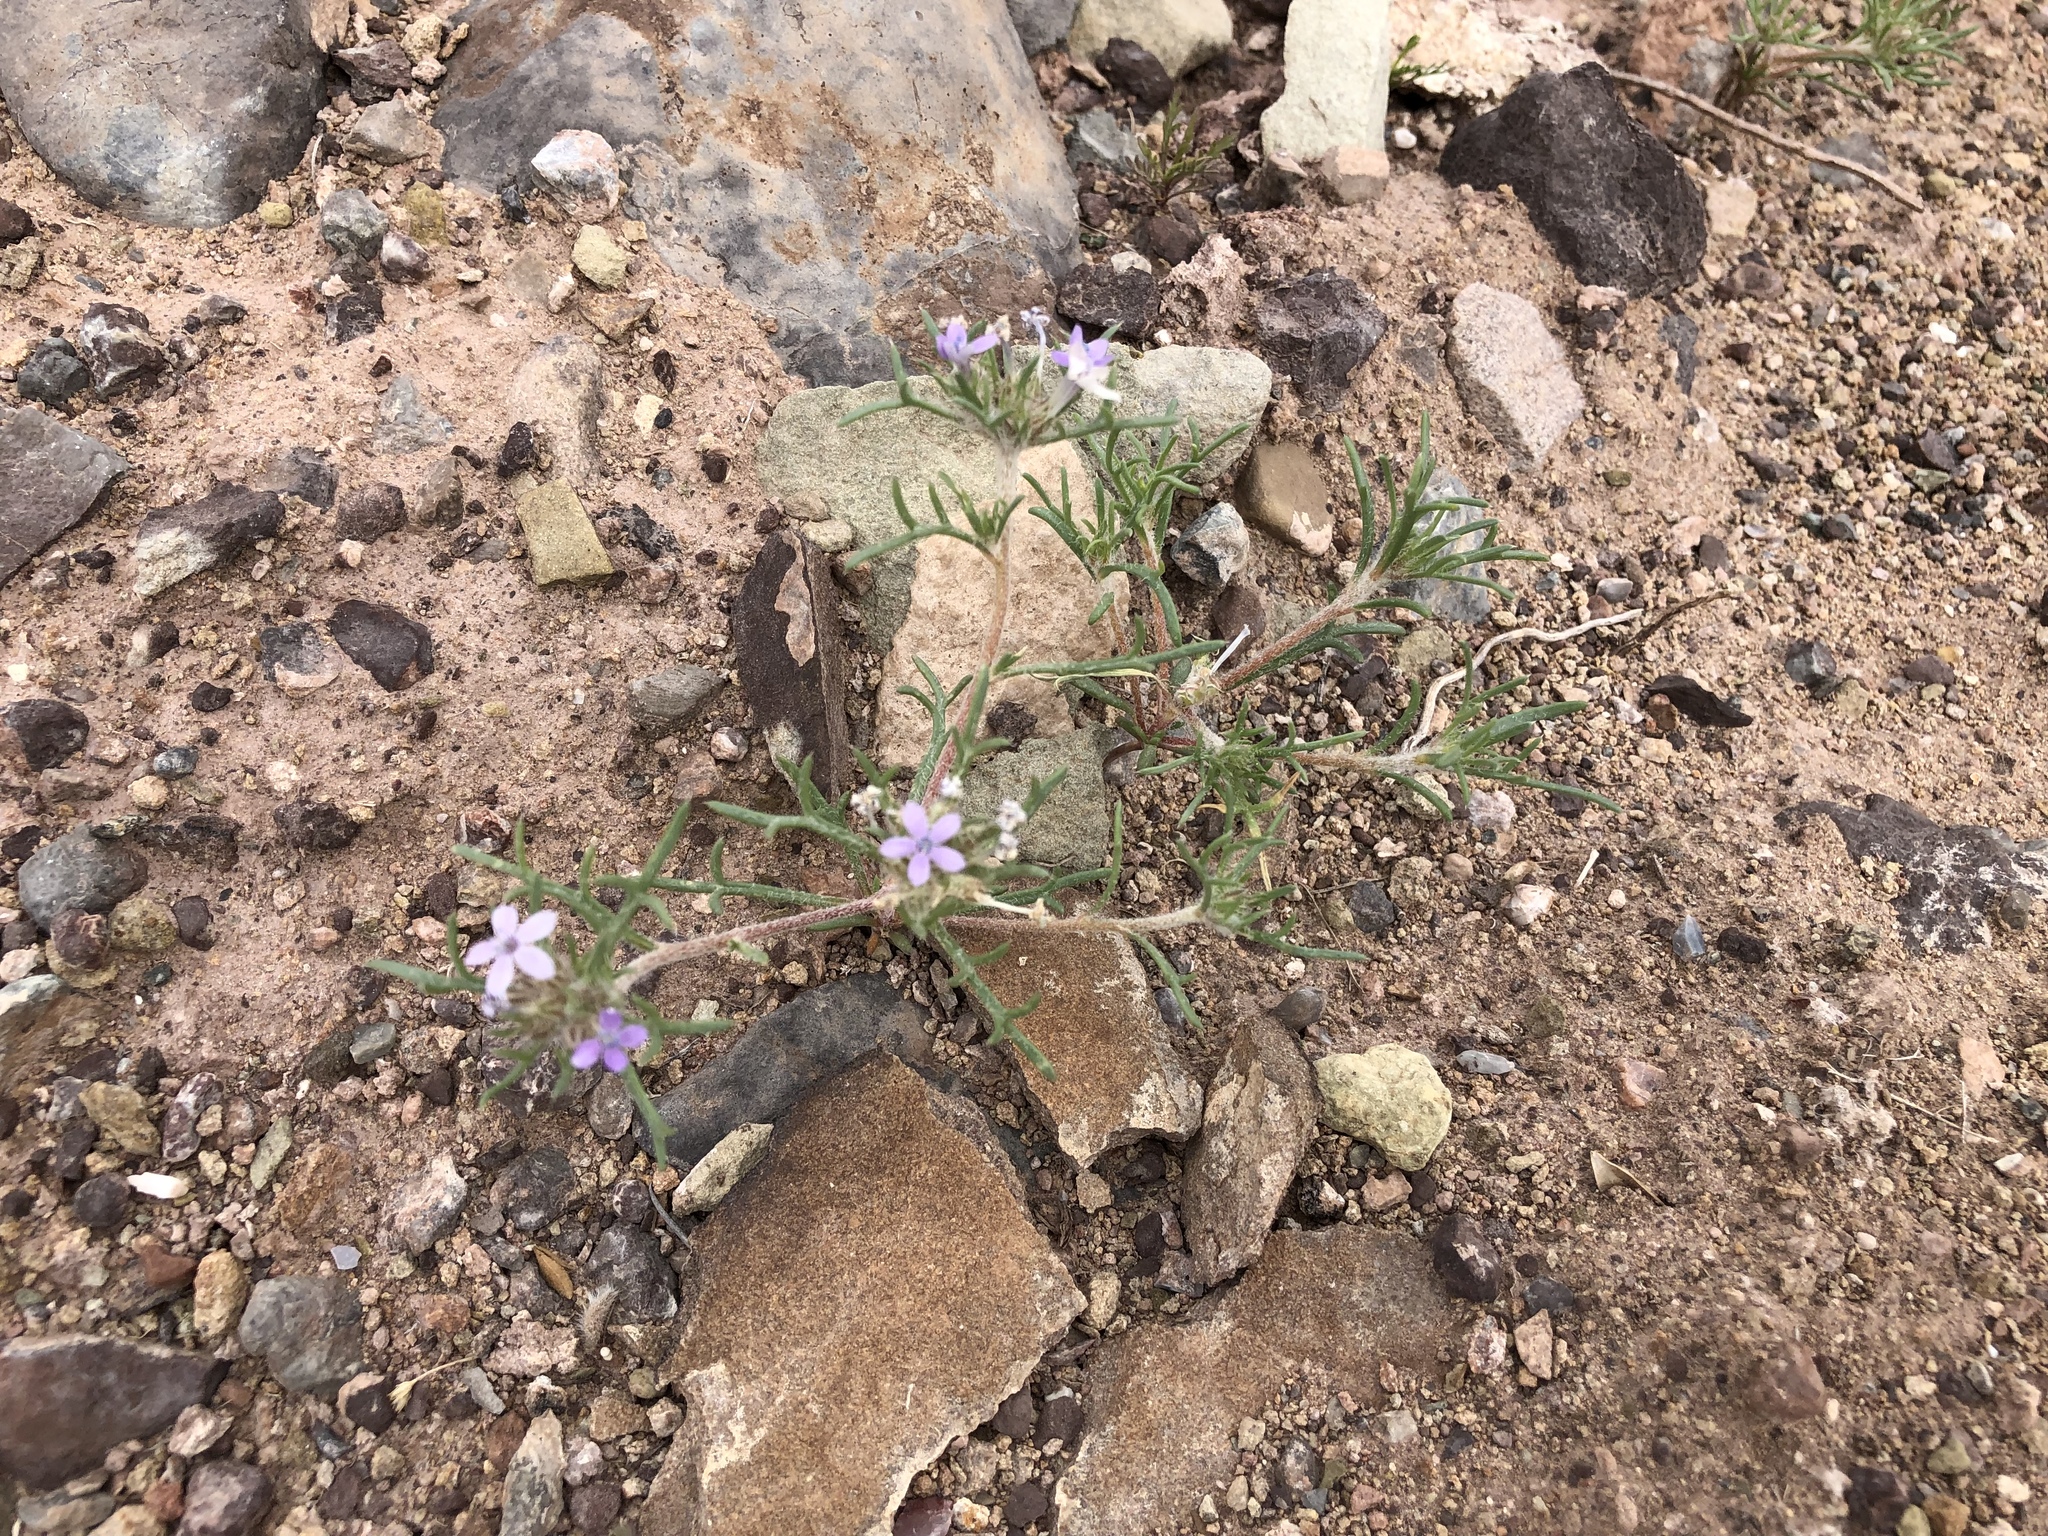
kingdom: Plantae
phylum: Tracheophyta
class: Magnoliopsida
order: Ericales
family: Polemoniaceae
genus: Ipomopsis
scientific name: Ipomopsis pumila
